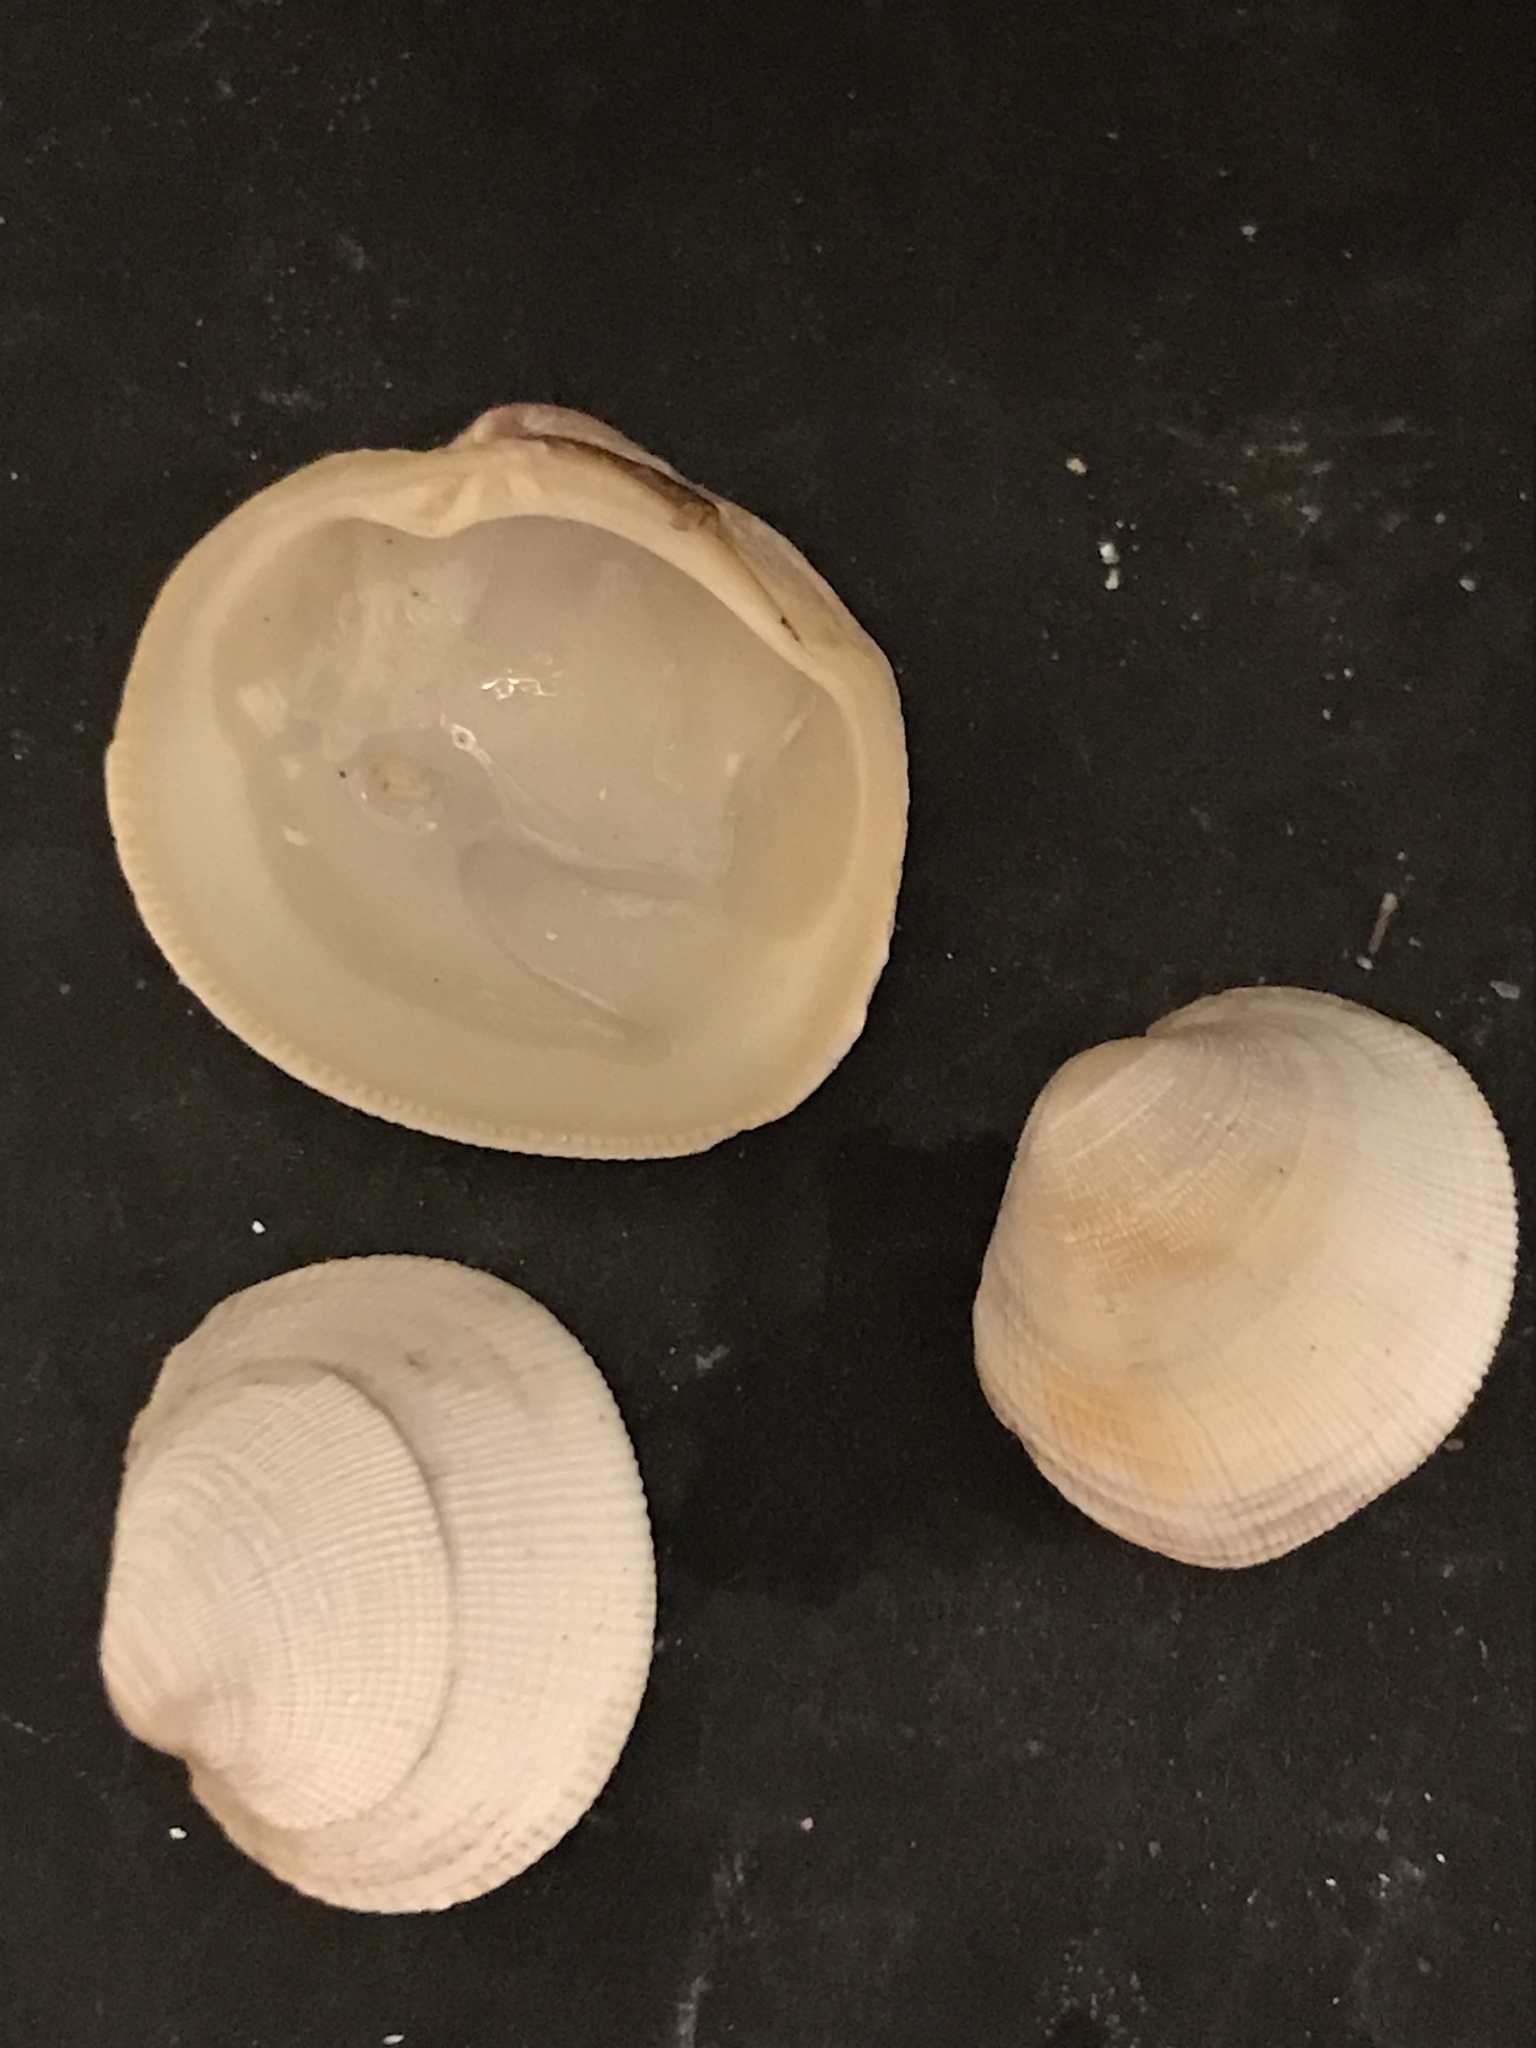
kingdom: Animalia
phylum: Mollusca
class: Bivalvia
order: Venerida
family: Veneridae
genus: Leukoma
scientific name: Leukoma staminea
